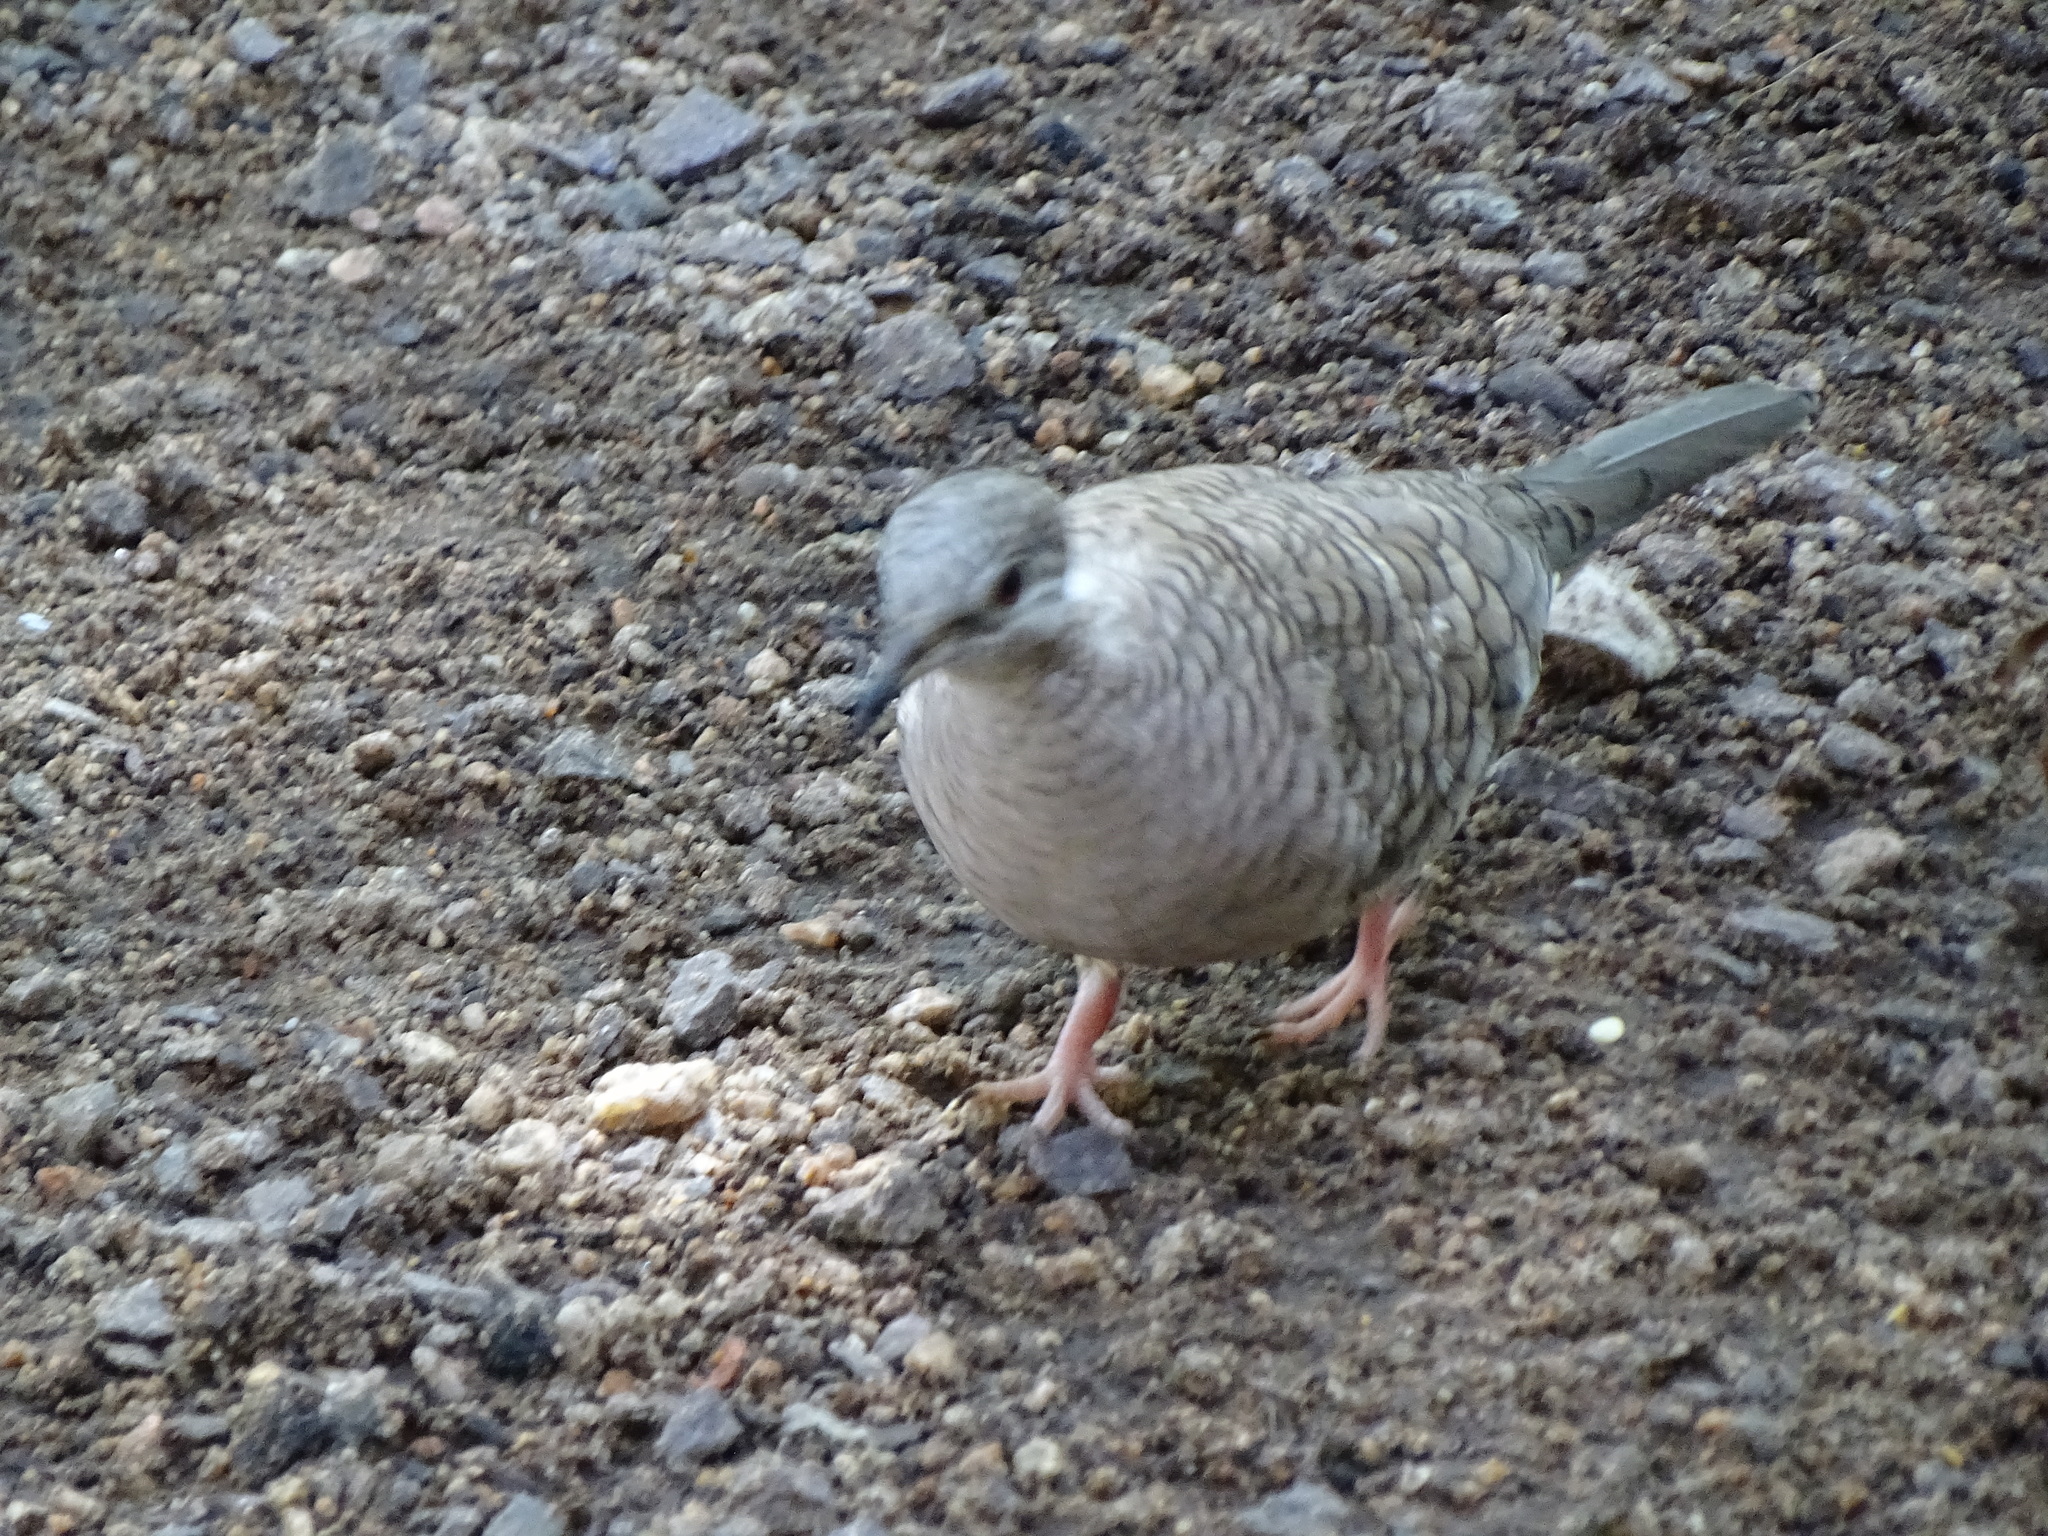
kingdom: Animalia
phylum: Chordata
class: Aves
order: Columbiformes
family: Columbidae
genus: Columbina
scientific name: Columbina inca
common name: Inca dove
